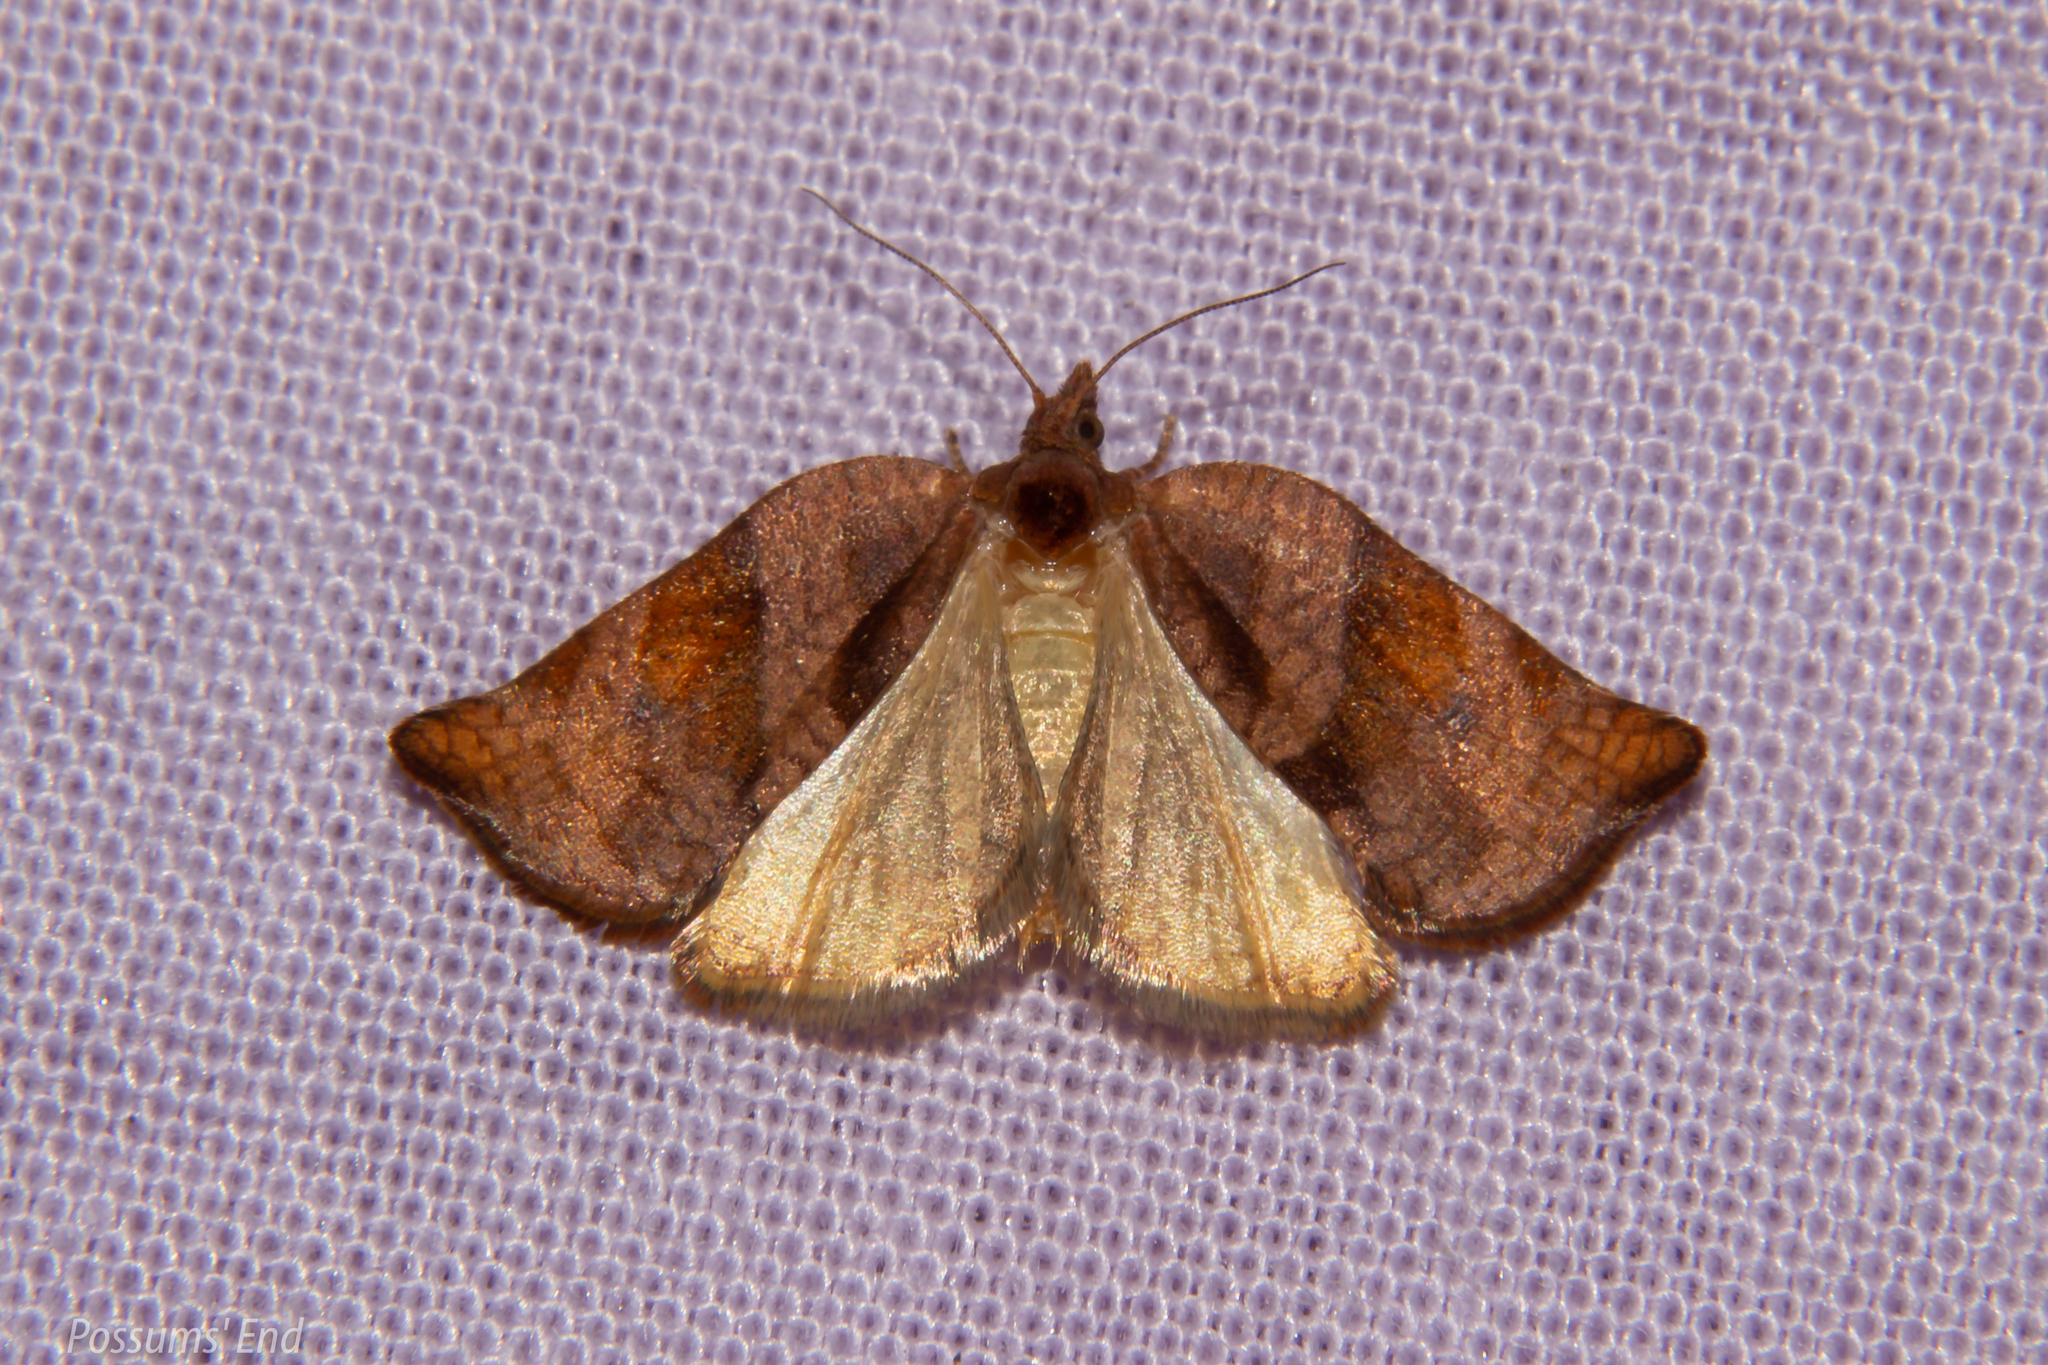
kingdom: Animalia
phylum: Arthropoda
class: Insecta
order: Lepidoptera
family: Tortricidae
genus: Pyrgotis
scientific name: Pyrgotis eudorana
